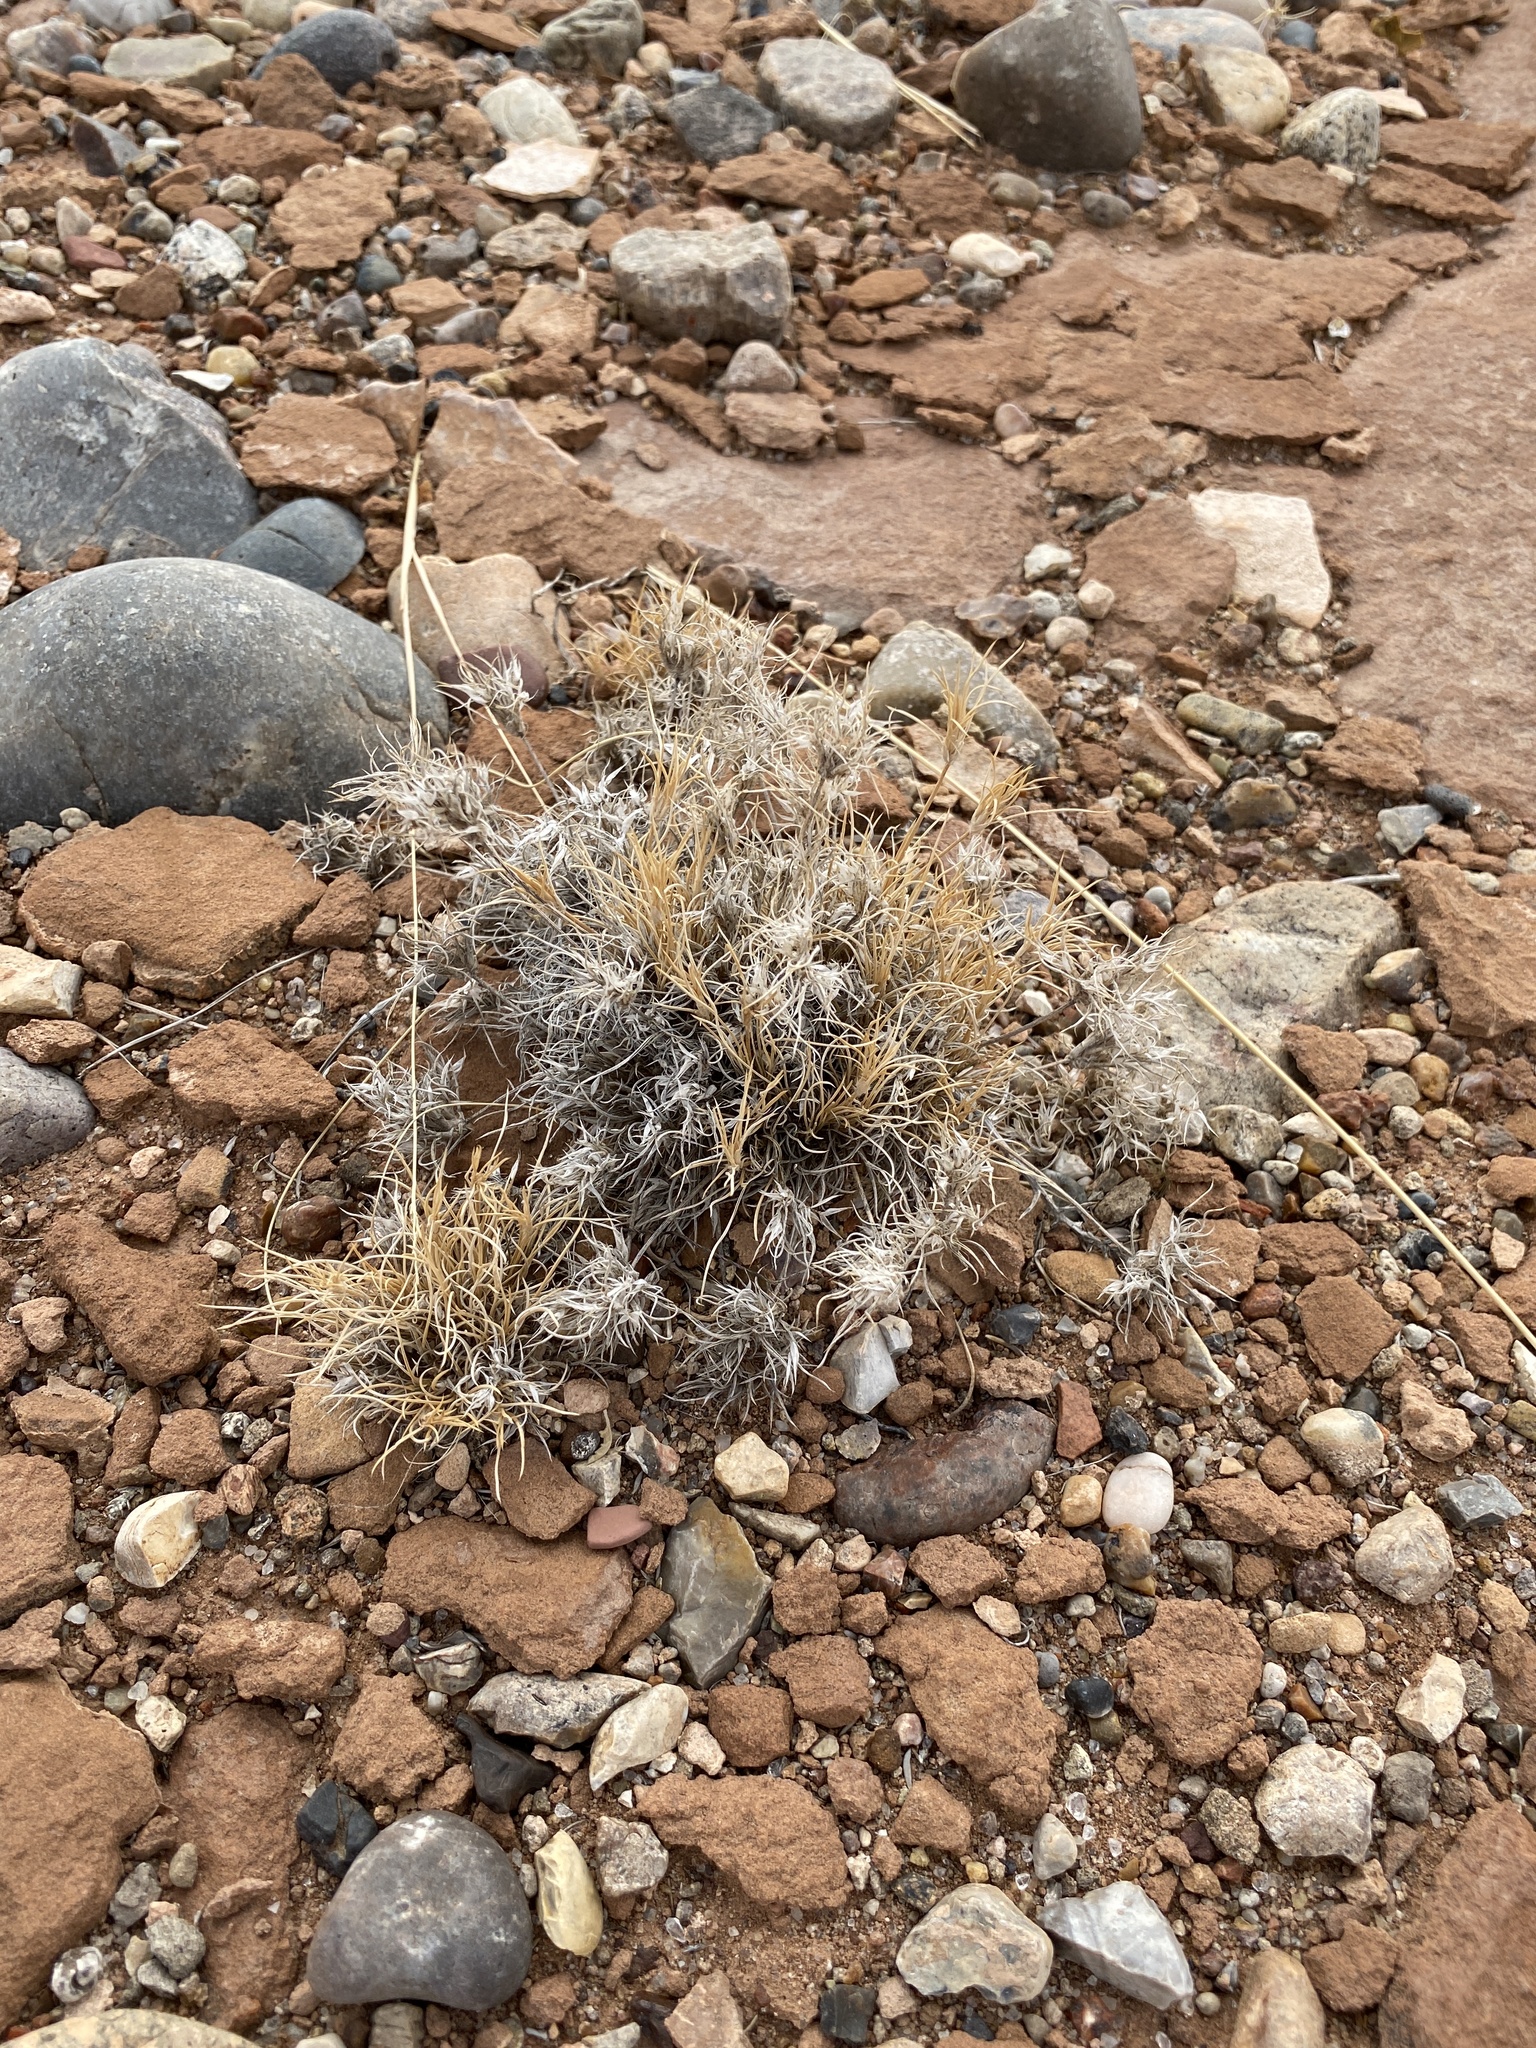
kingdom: Plantae
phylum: Tracheophyta
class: Liliopsida
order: Poales
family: Poaceae
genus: Dasyochloa
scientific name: Dasyochloa pulchella
